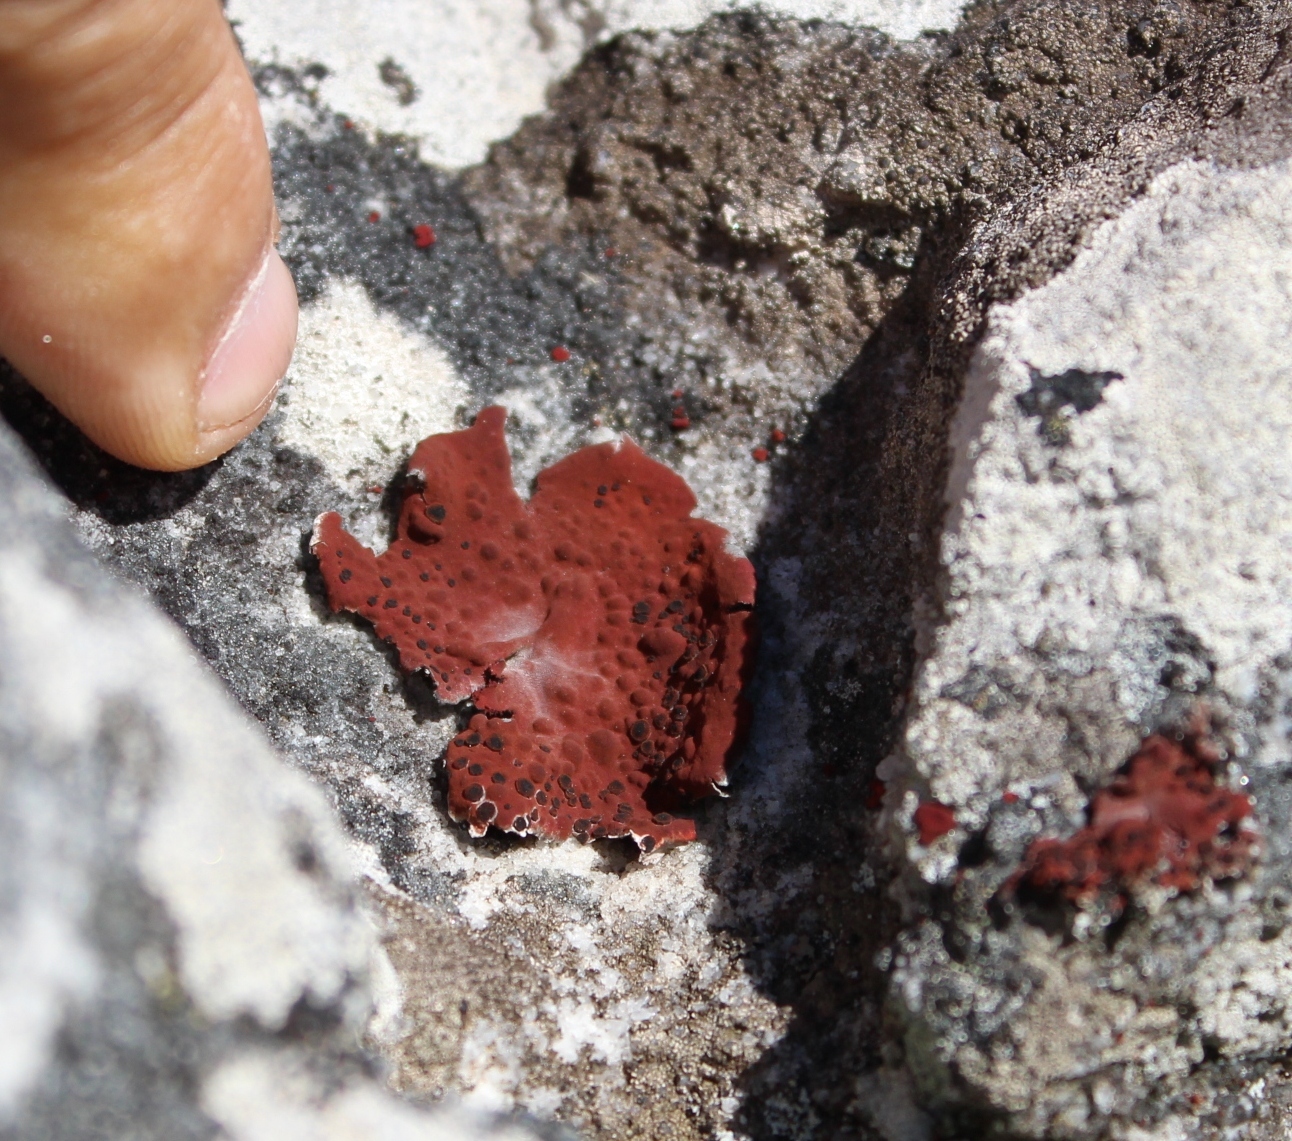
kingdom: Fungi
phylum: Ascomycota
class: Lecanoromycetes
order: Umbilicariales
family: Umbilicariaceae
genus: Lasallia
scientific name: Lasallia rubiginosa
